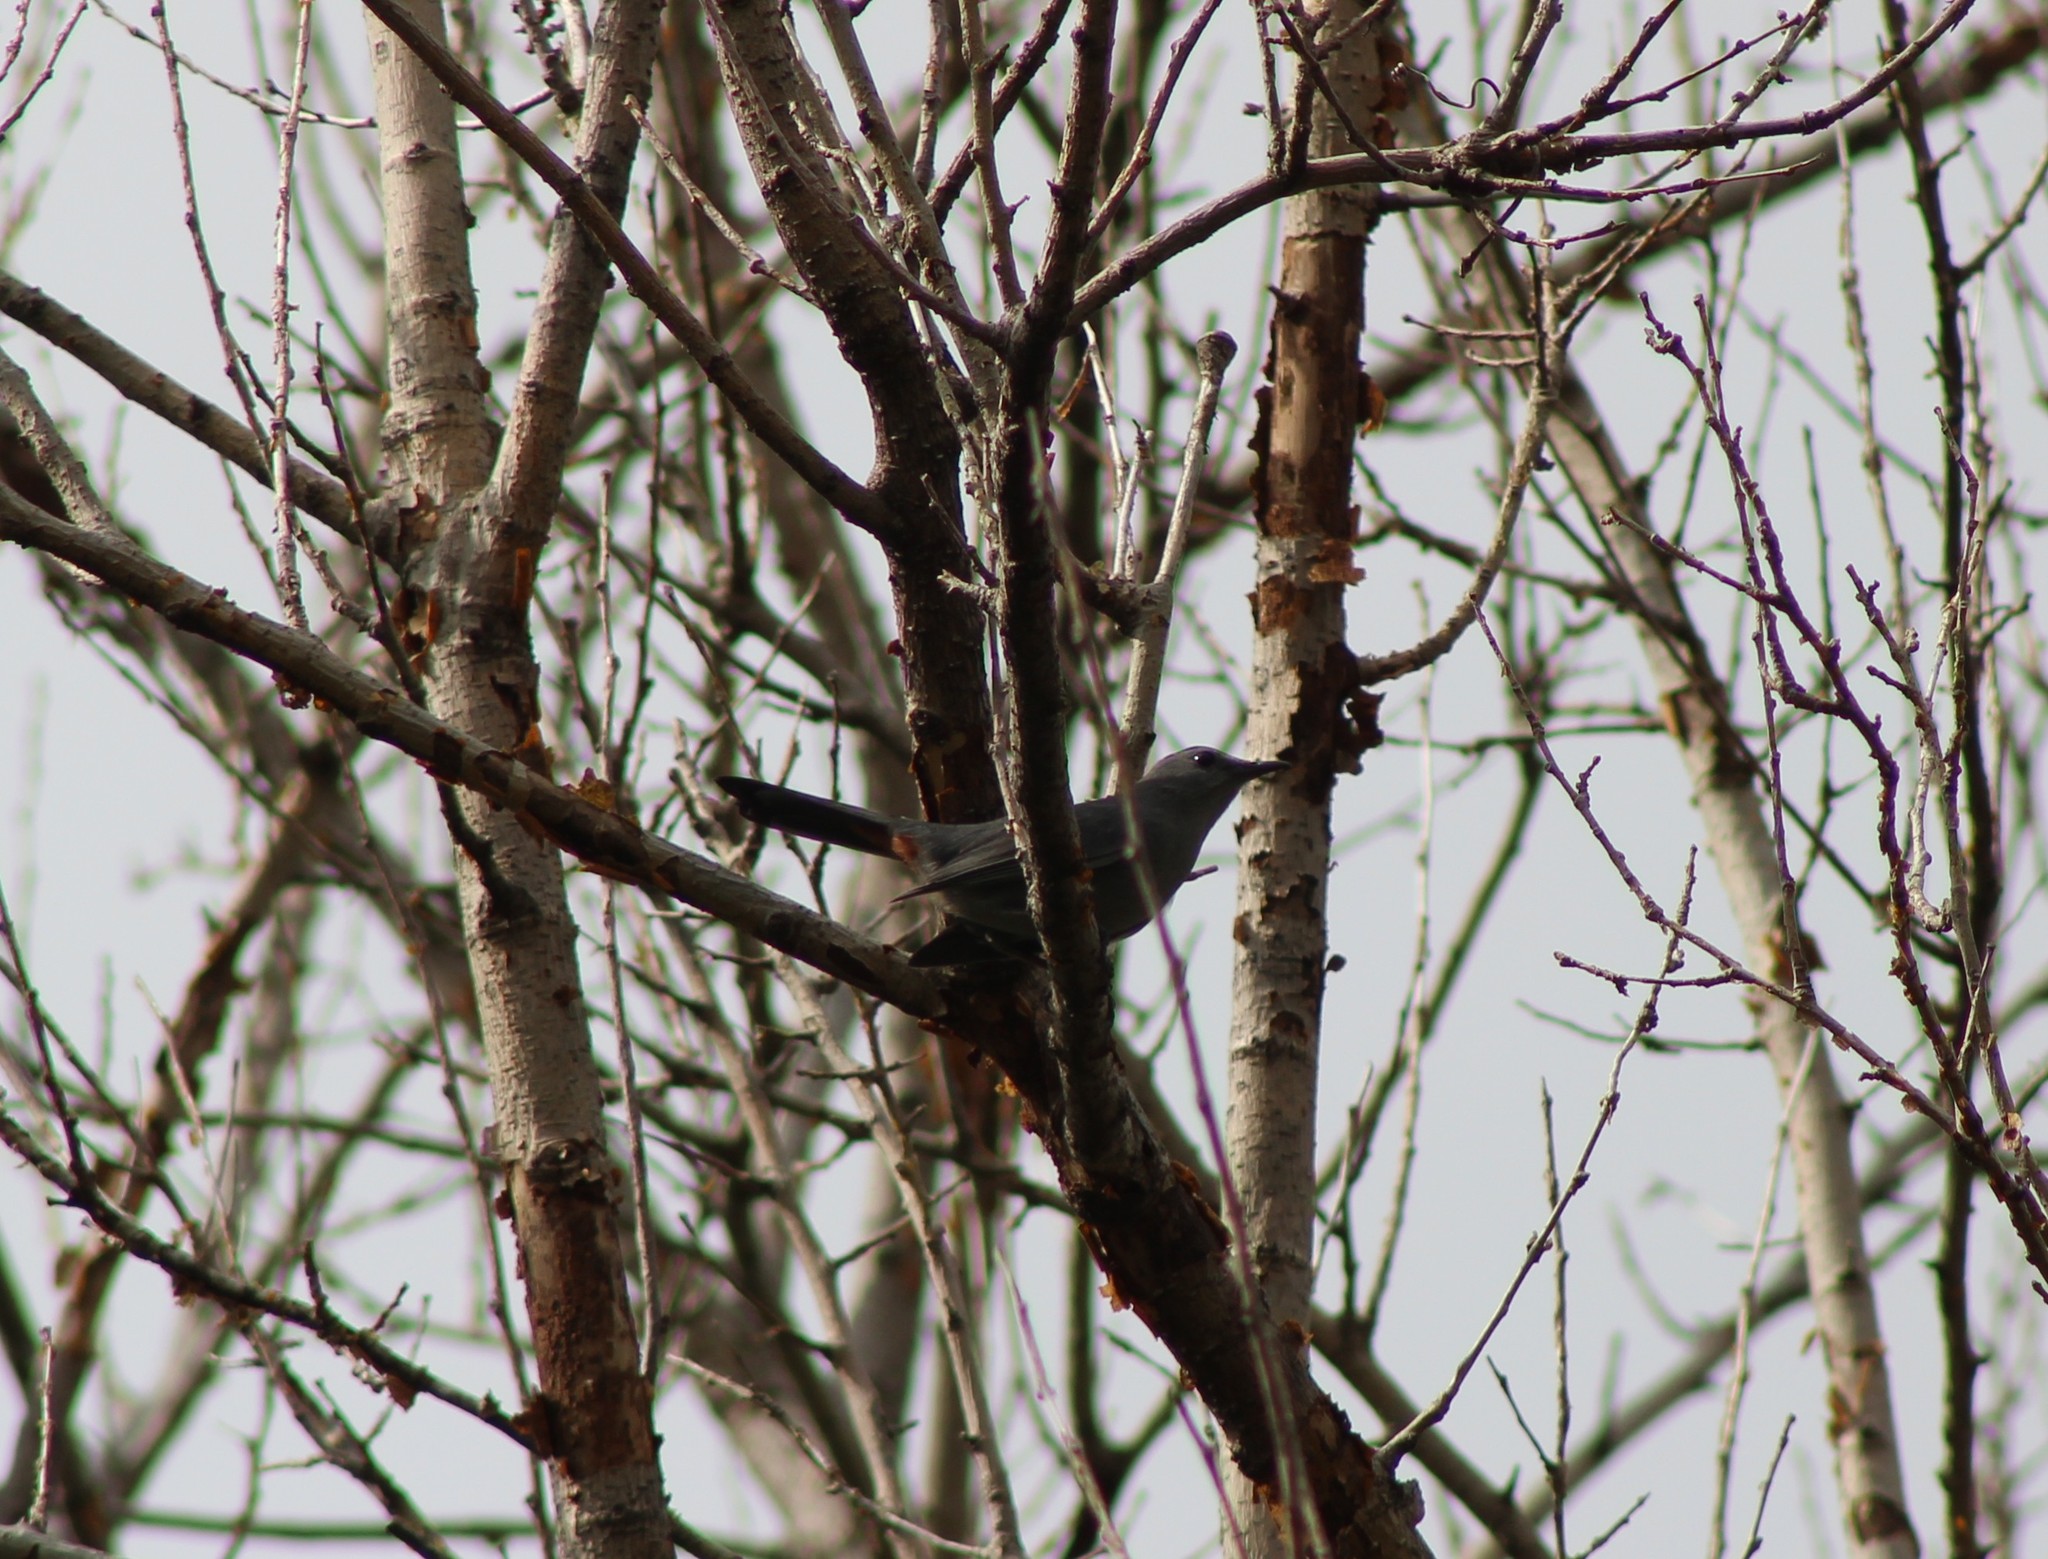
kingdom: Animalia
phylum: Chordata
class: Aves
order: Passeriformes
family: Mimidae
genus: Dumetella
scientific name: Dumetella carolinensis
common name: Gray catbird
